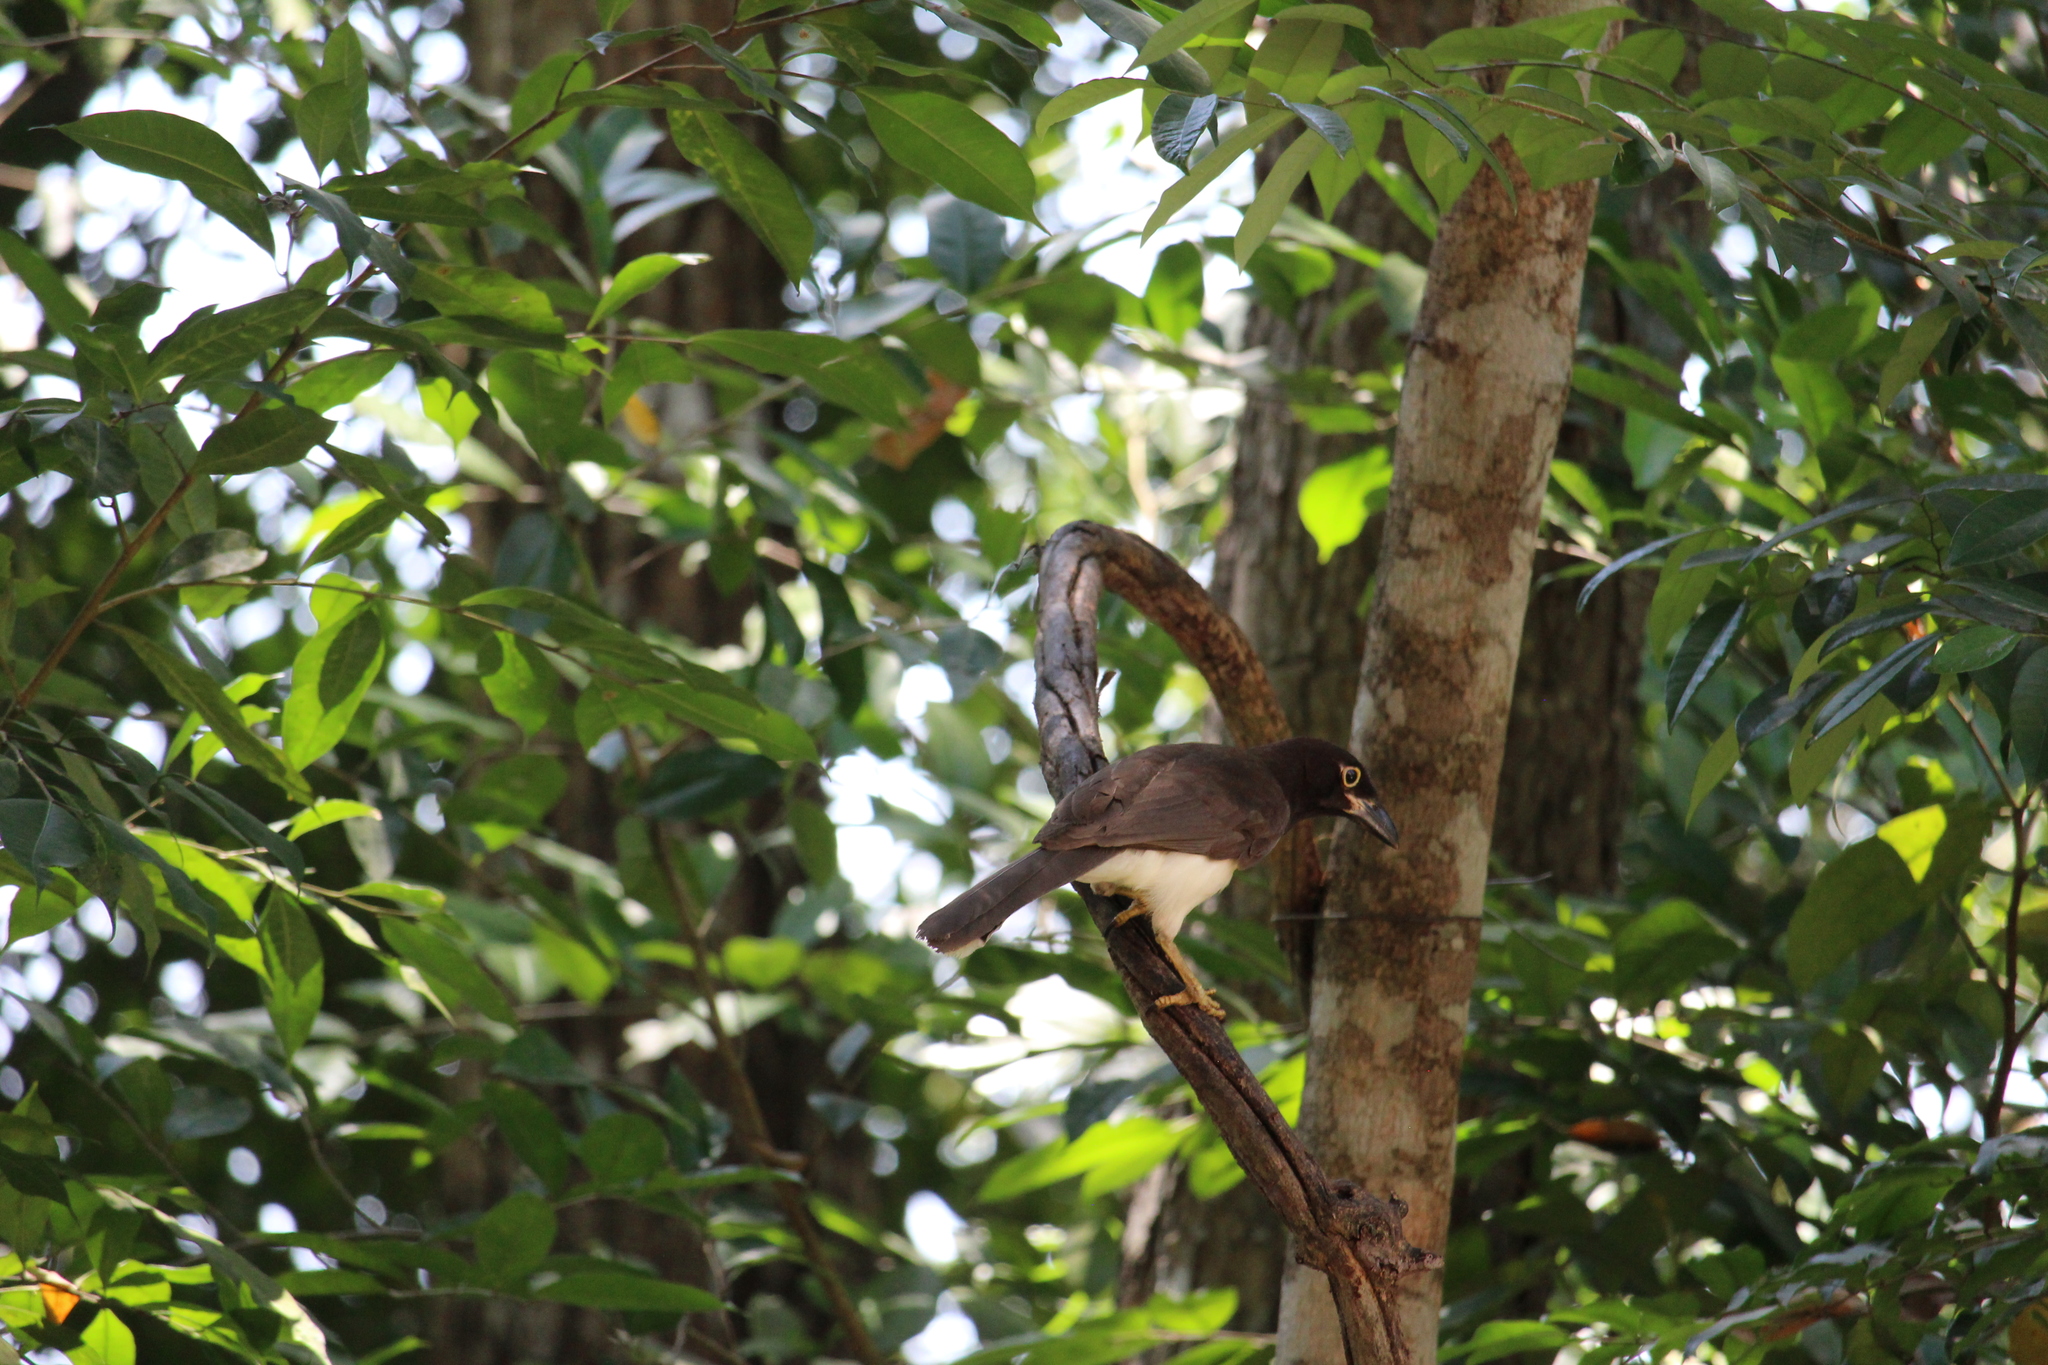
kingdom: Animalia
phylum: Chordata
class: Aves
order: Passeriformes
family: Corvidae
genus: Psilorhinus
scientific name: Psilorhinus morio
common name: Brown jay
